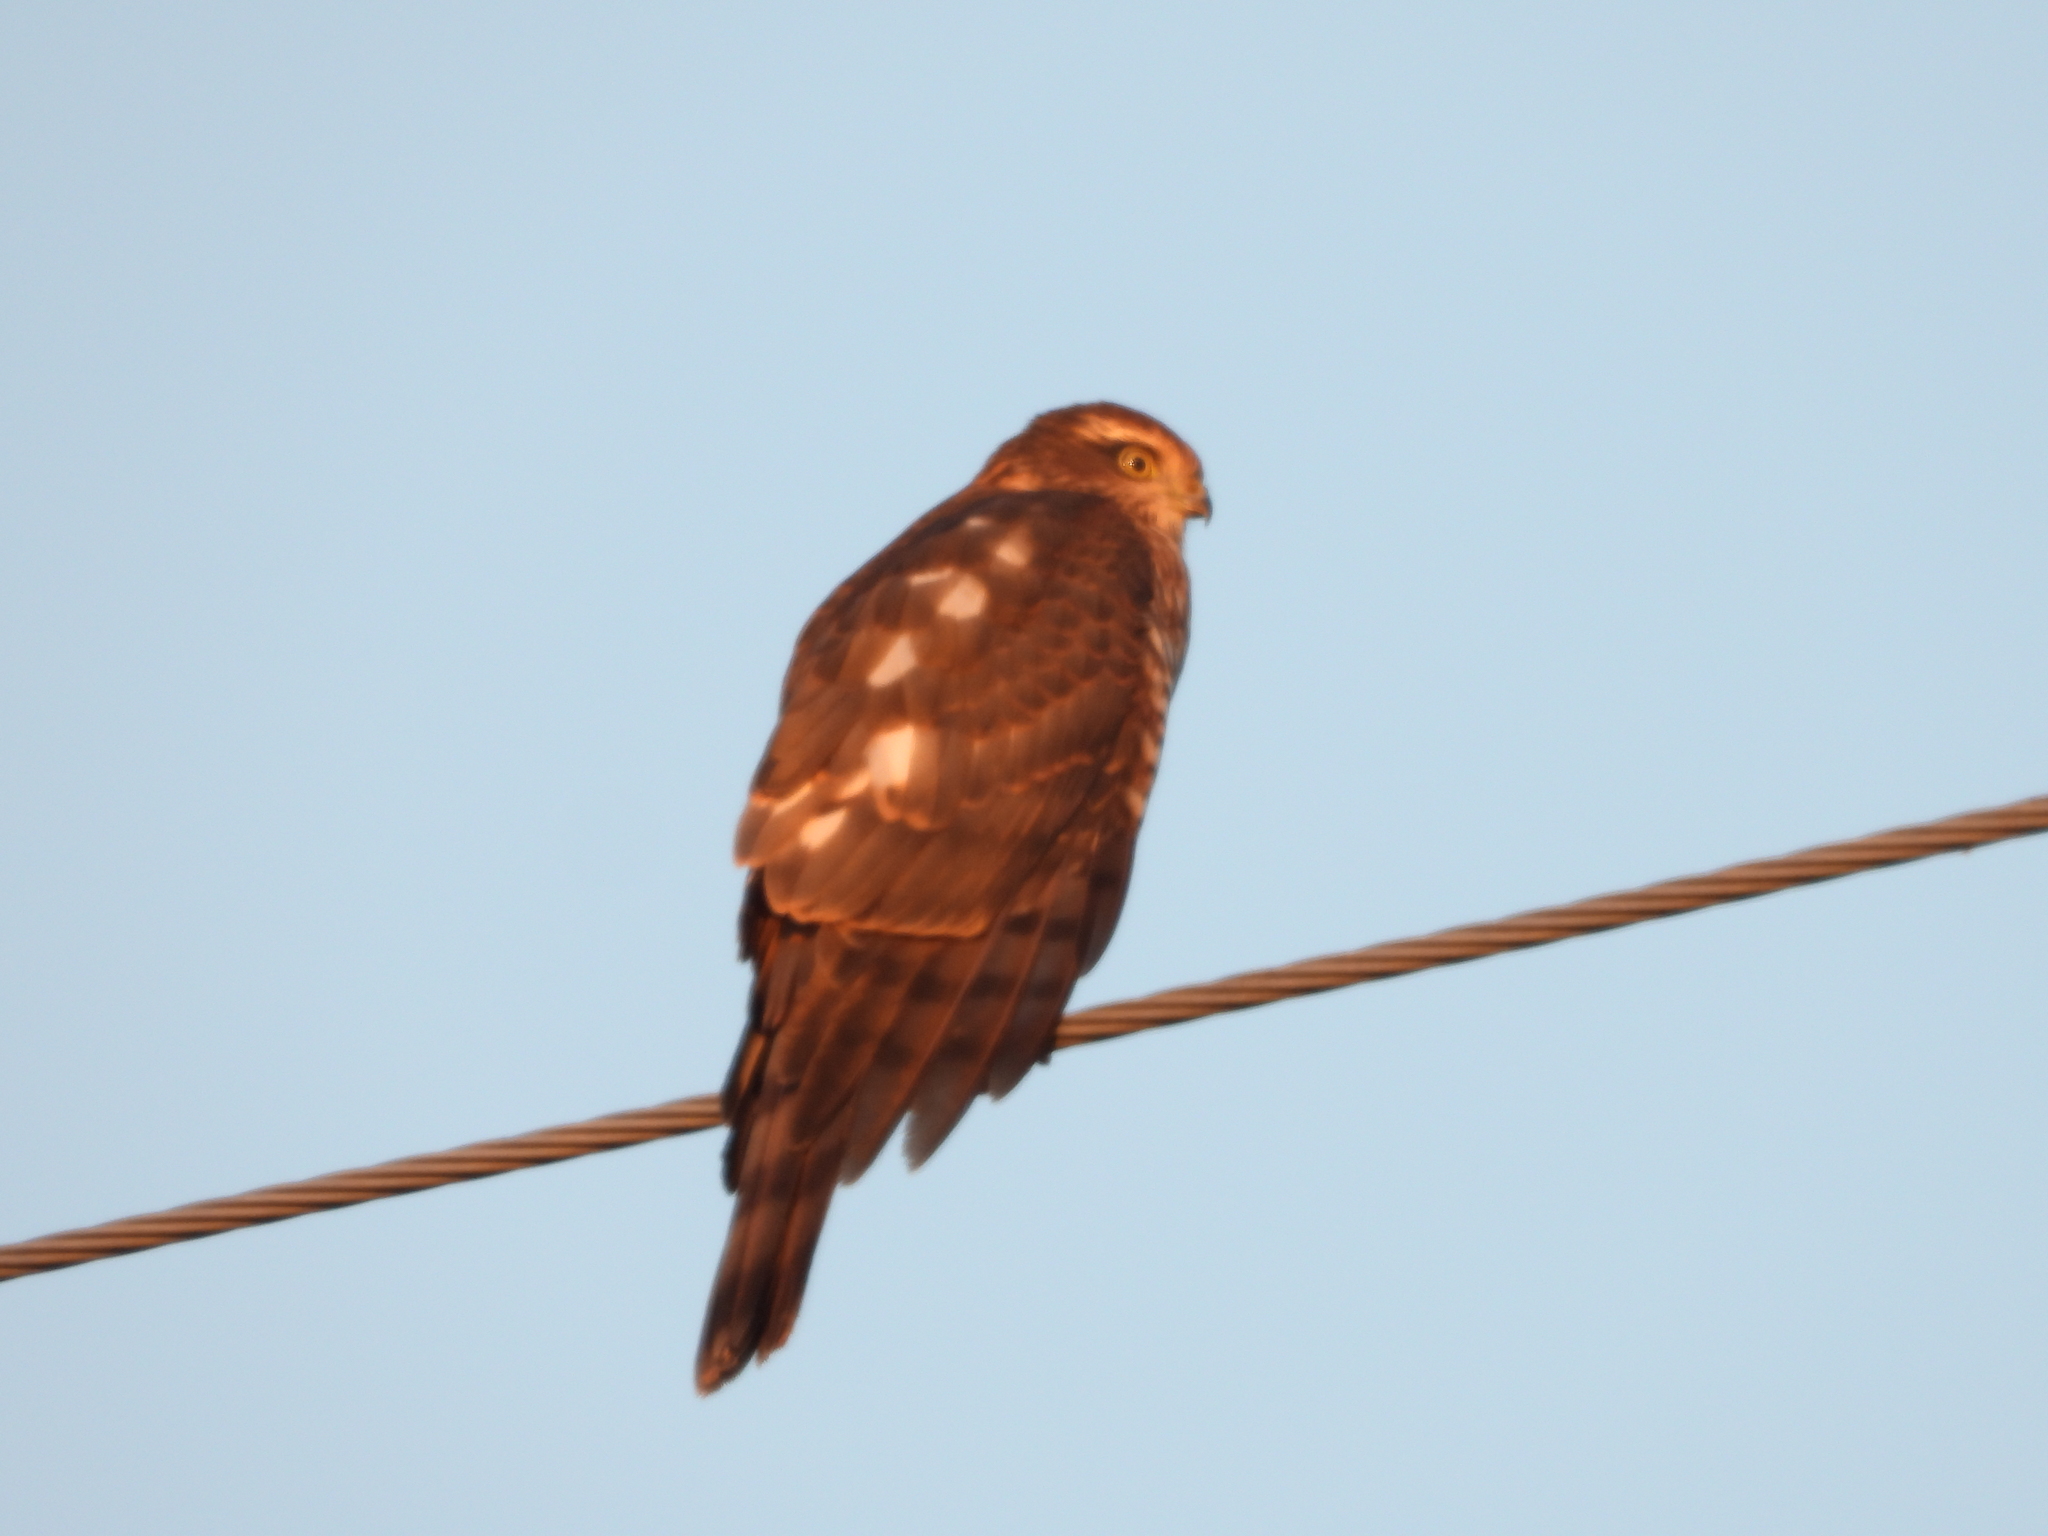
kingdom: Animalia
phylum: Chordata
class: Aves
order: Accipitriformes
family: Accipitridae
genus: Accipiter
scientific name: Accipiter nisus
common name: Eurasian sparrowhawk
